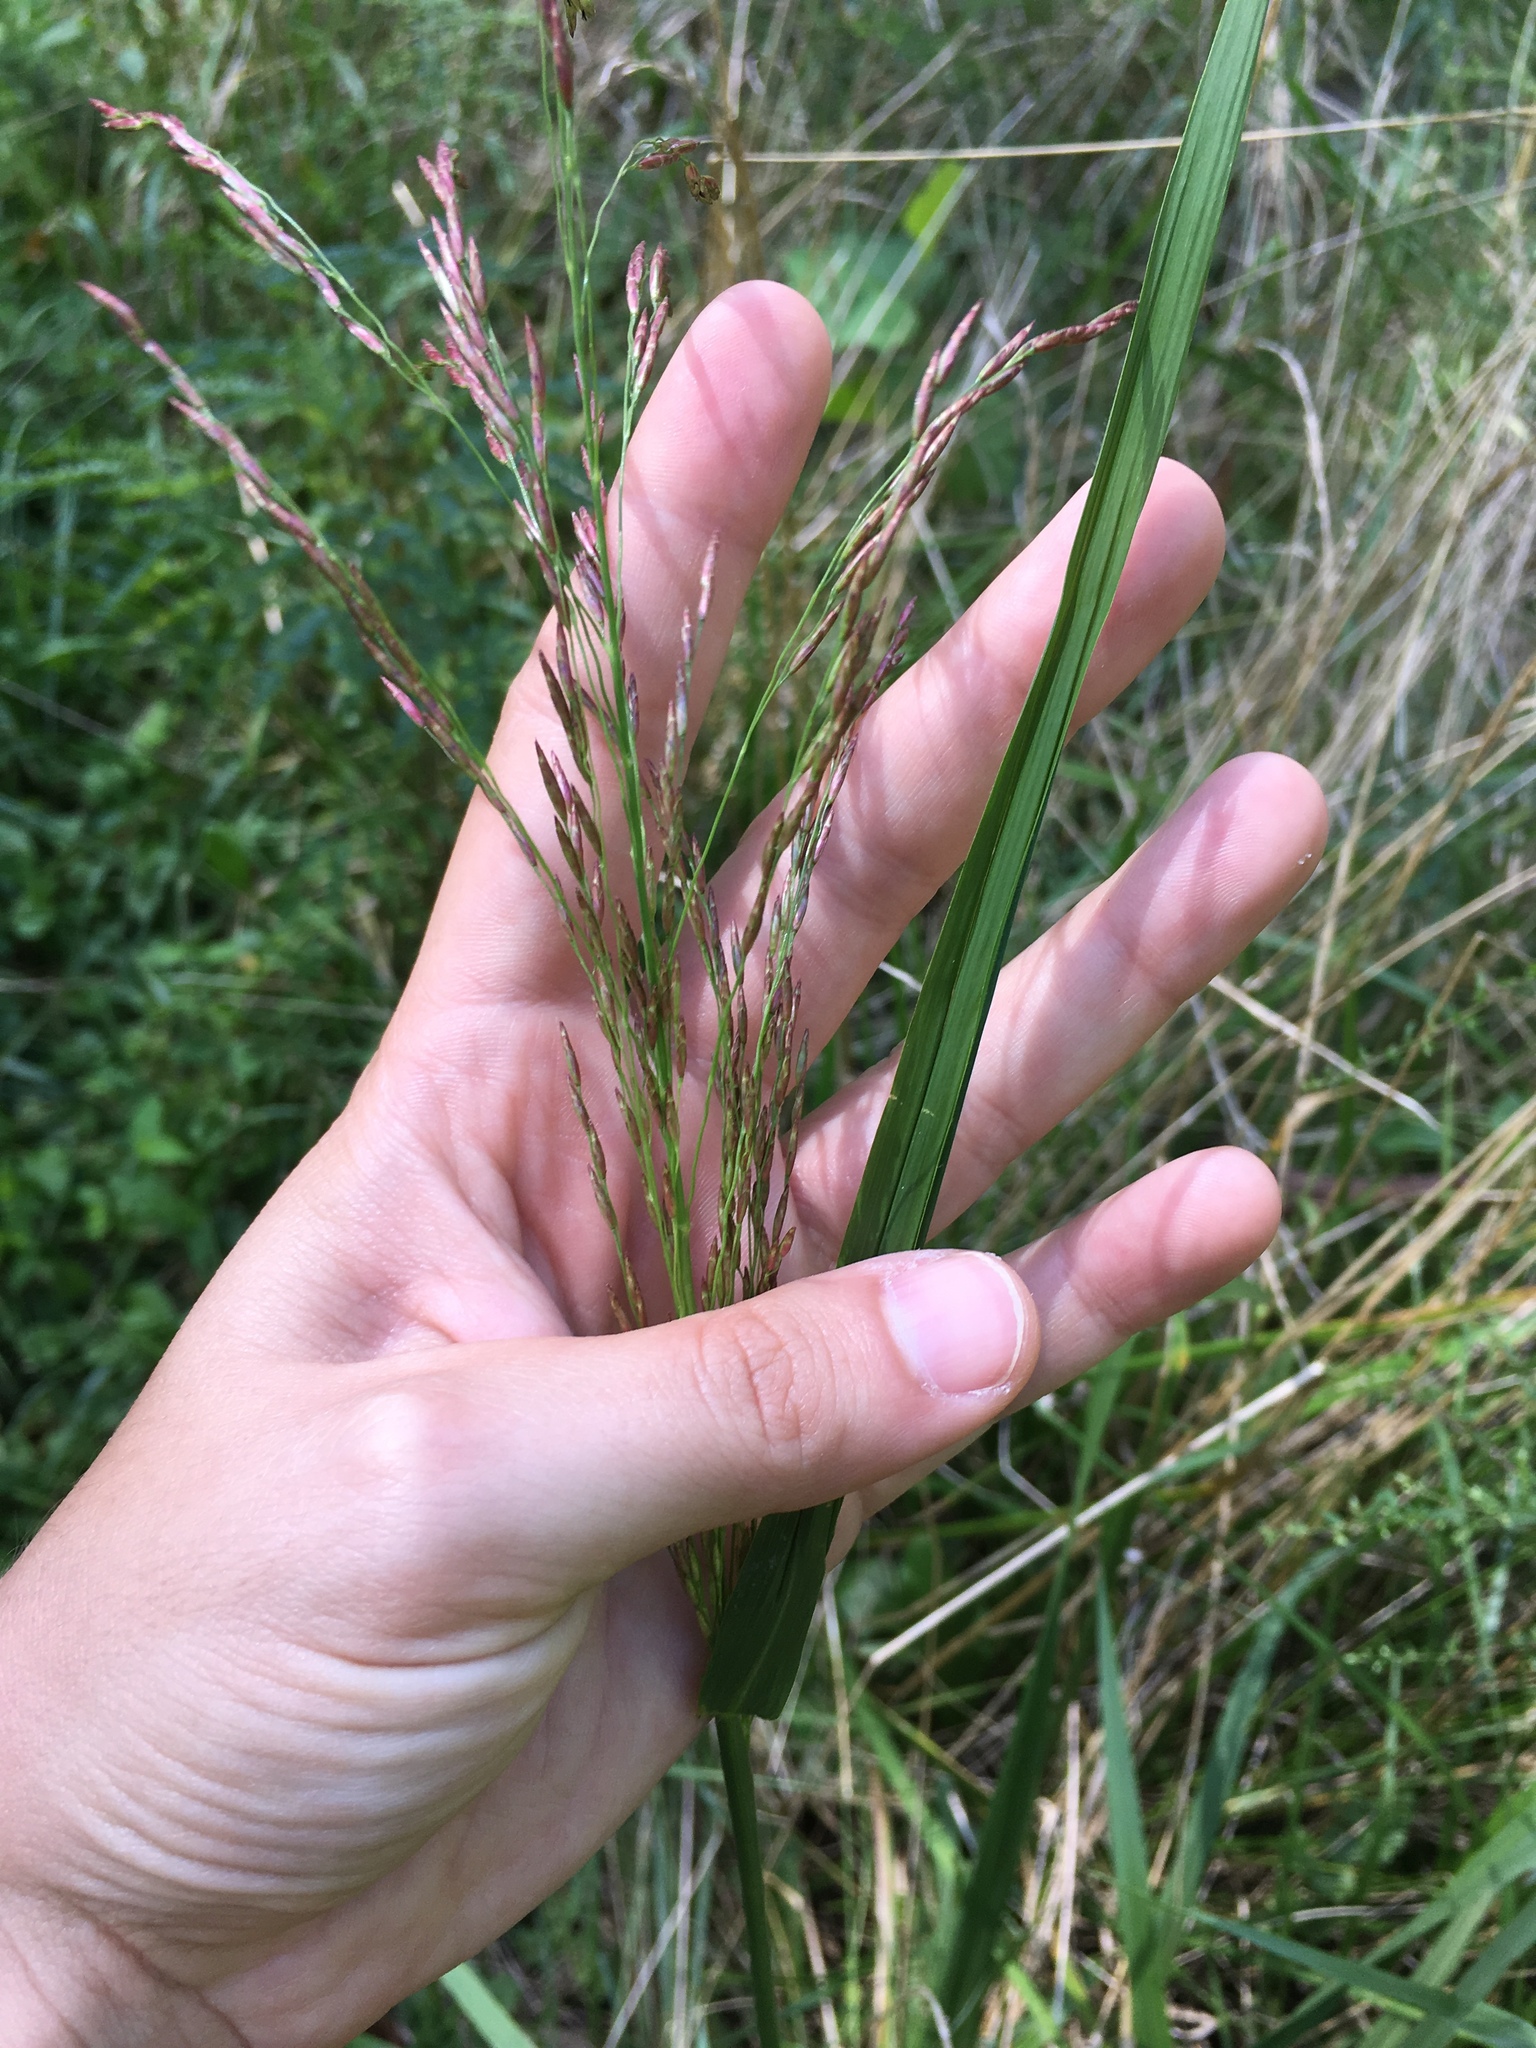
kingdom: Plantae
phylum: Tracheophyta
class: Liliopsida
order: Poales
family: Poaceae
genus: Tridens
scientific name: Tridens flavus
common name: Purpletop
